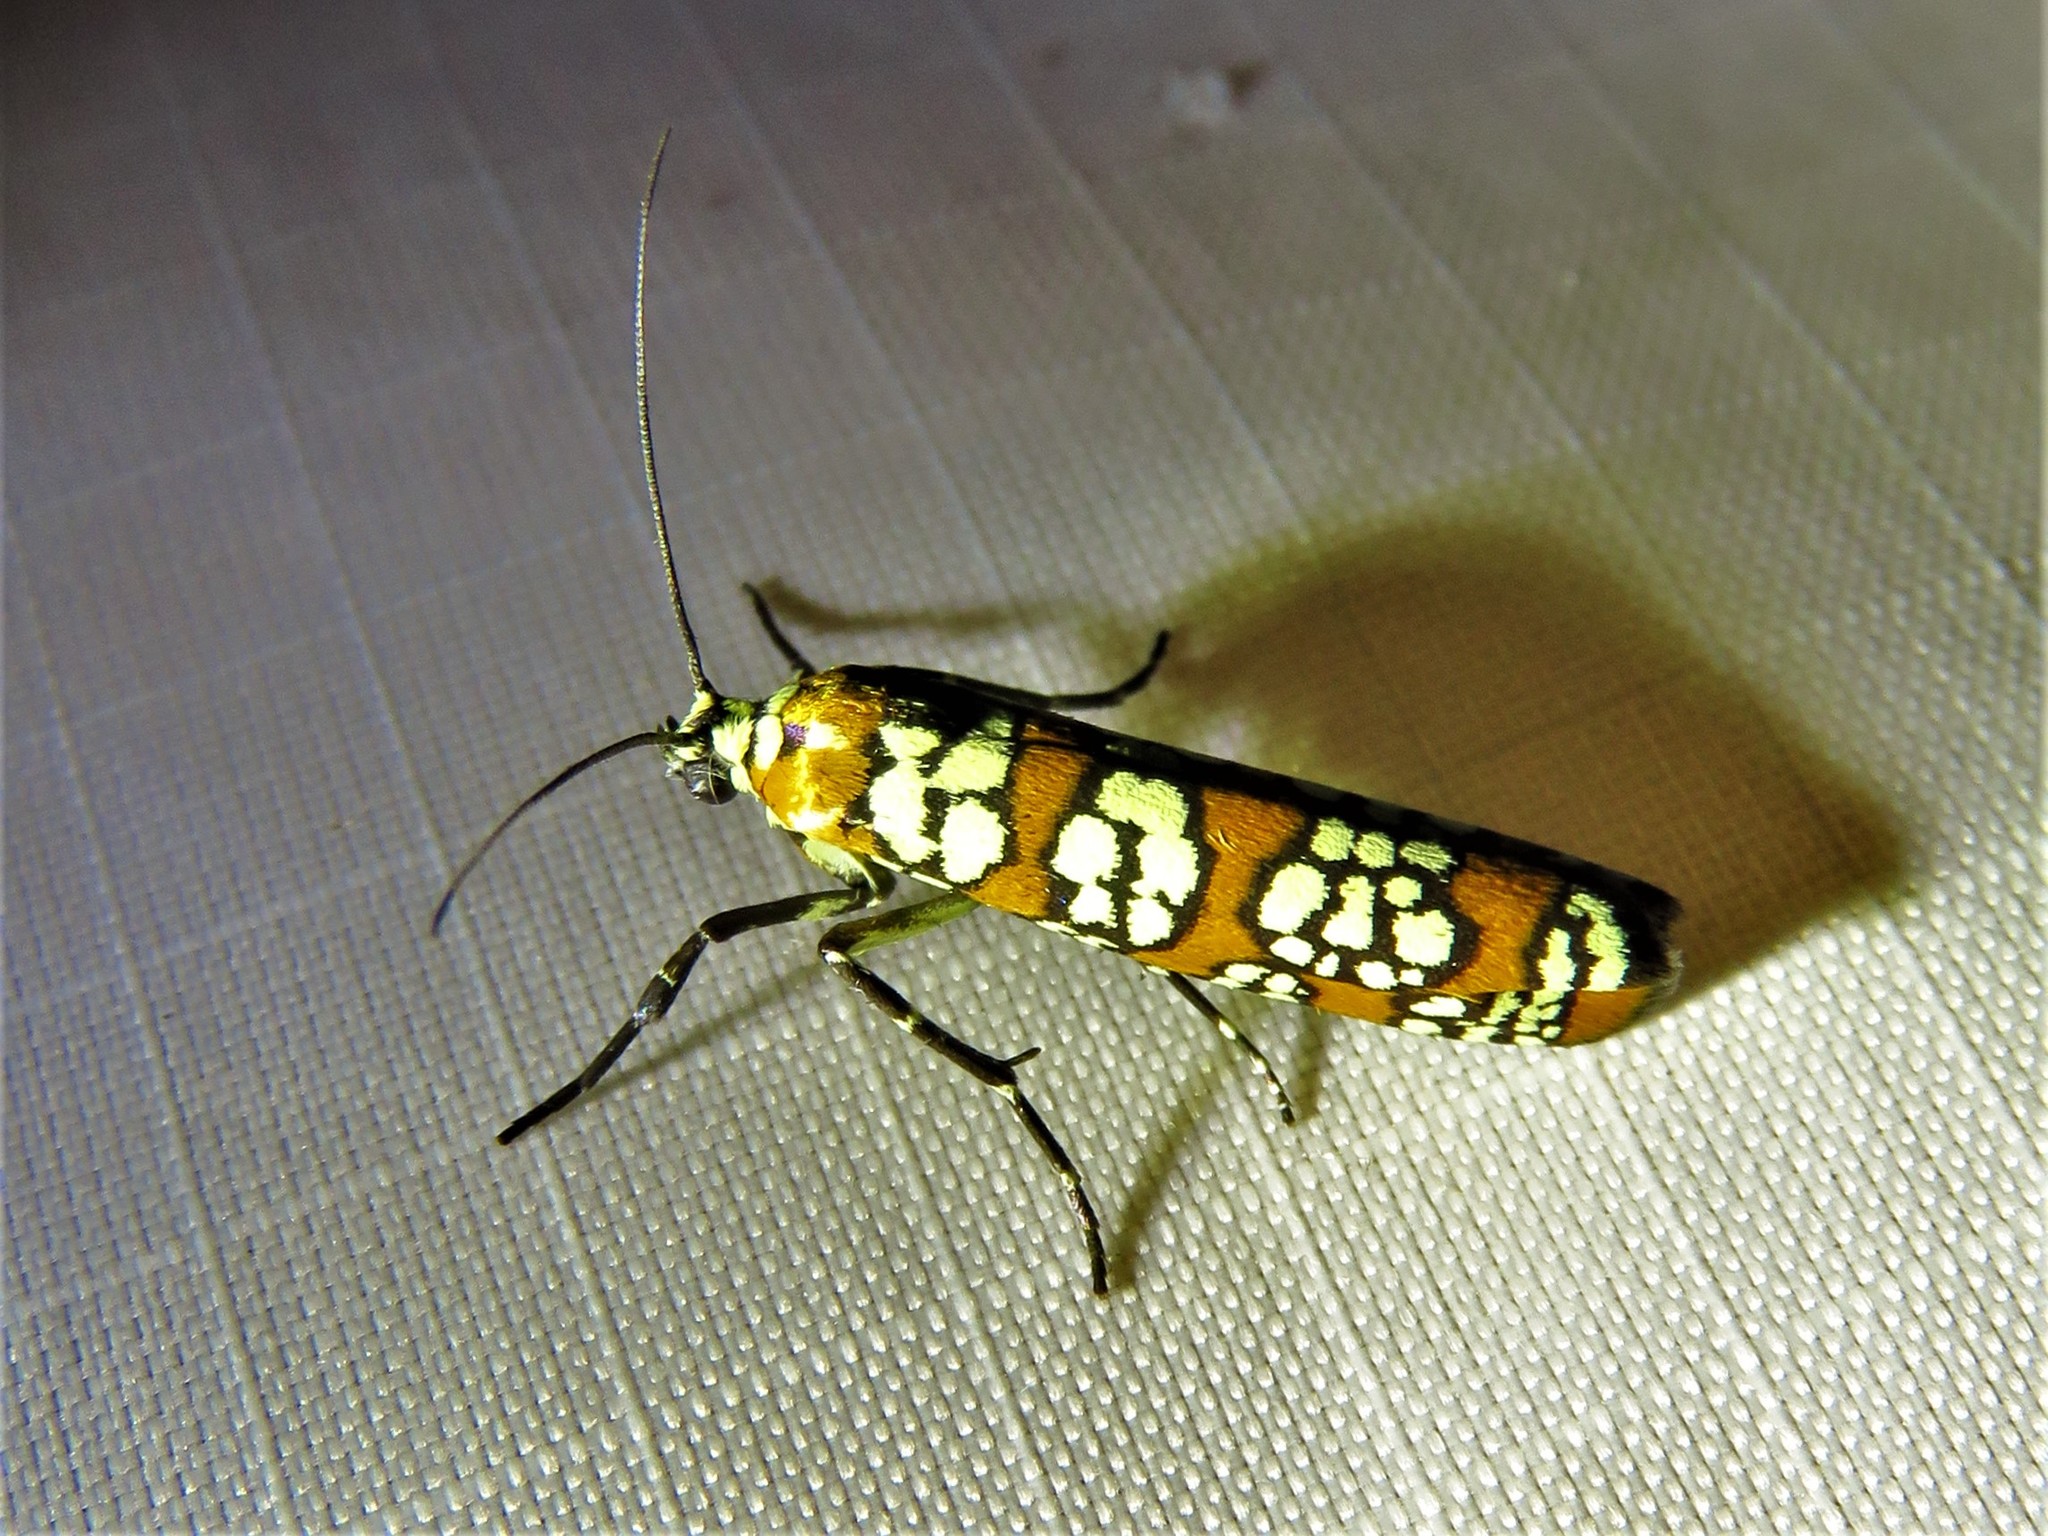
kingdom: Animalia
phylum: Arthropoda
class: Insecta
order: Lepidoptera
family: Attevidae
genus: Atteva
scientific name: Atteva punctella
